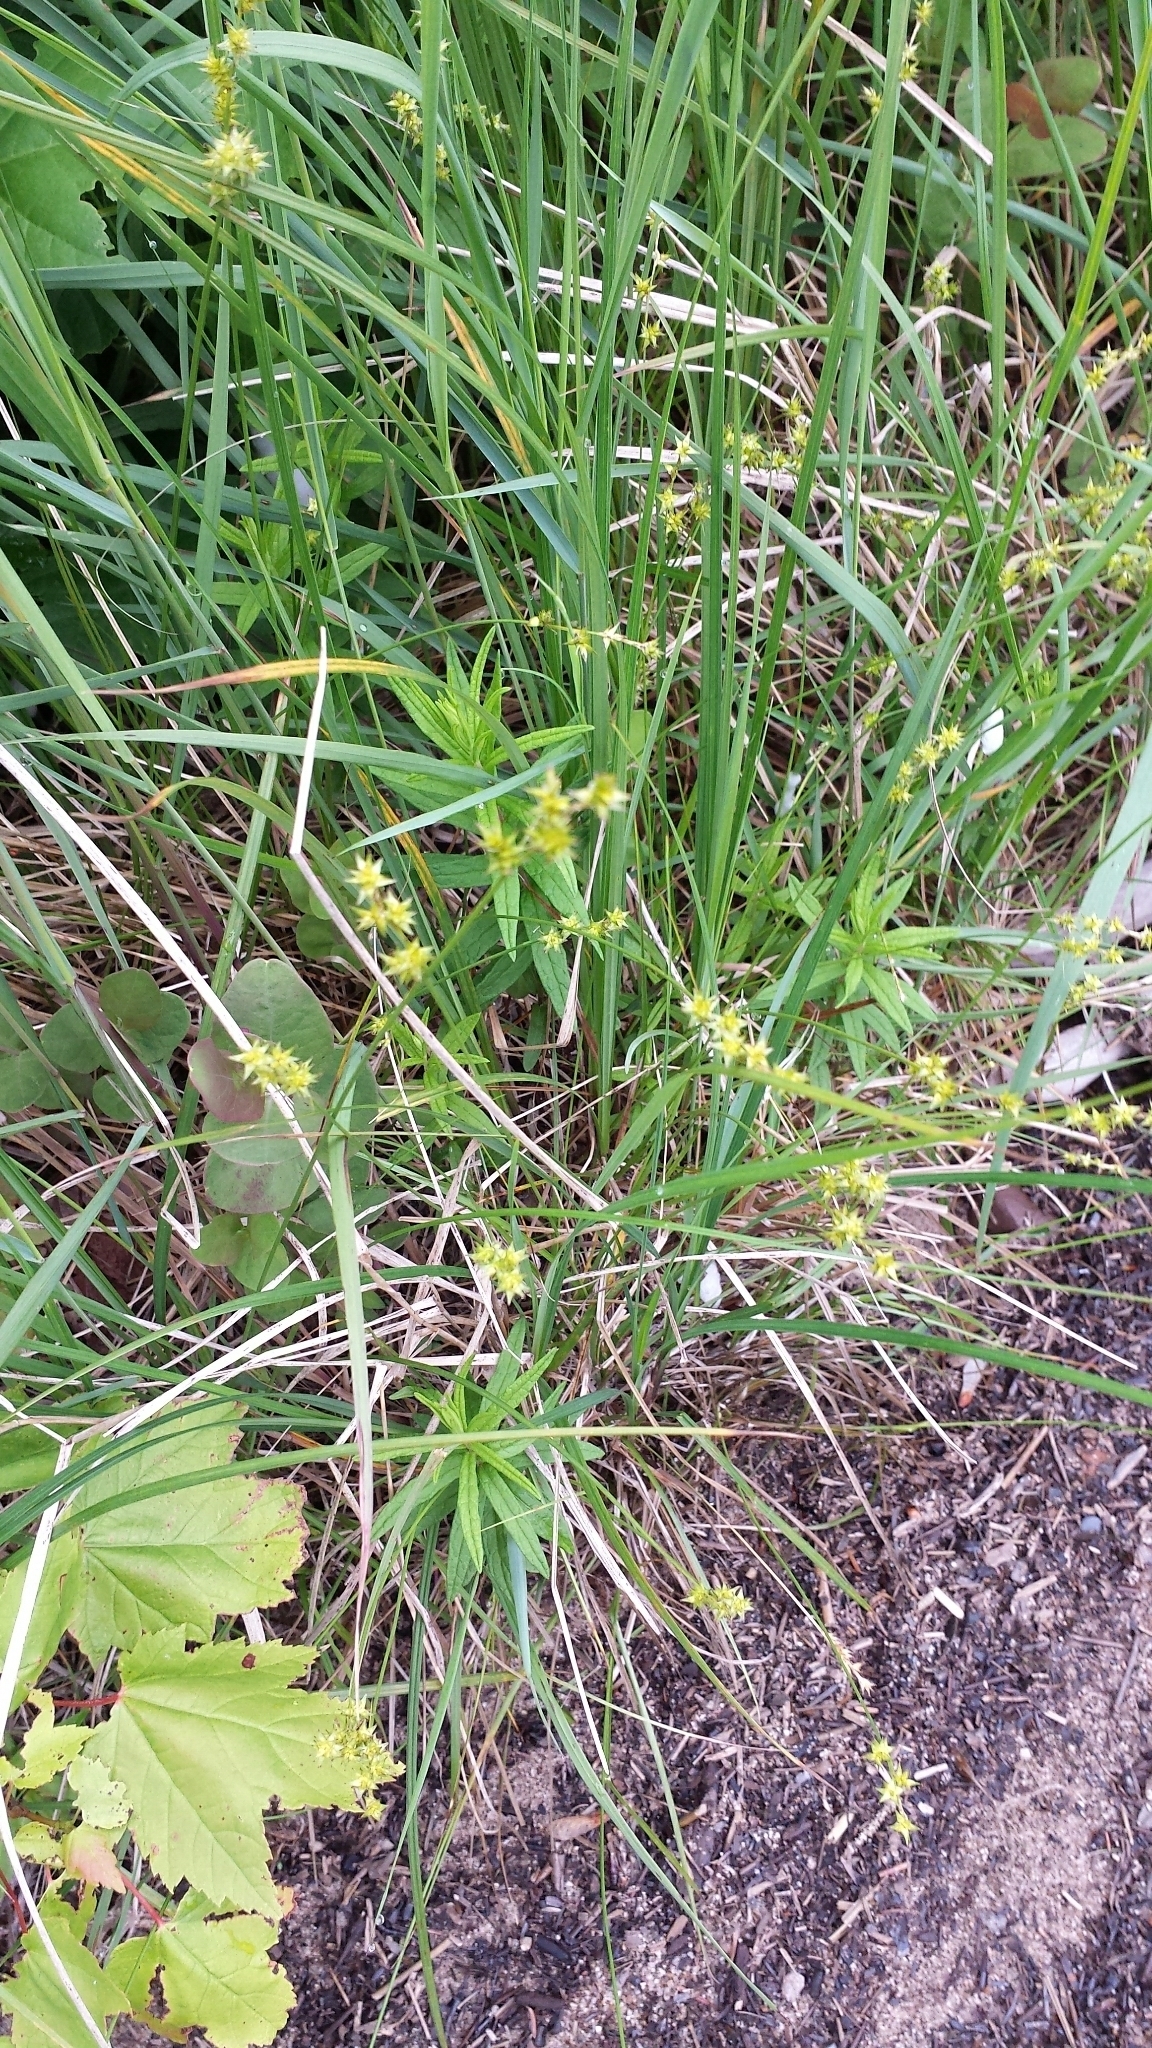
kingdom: Plantae
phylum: Tracheophyta
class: Liliopsida
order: Poales
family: Cyperaceae
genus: Carex
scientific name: Carex echinata
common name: Star sedge
